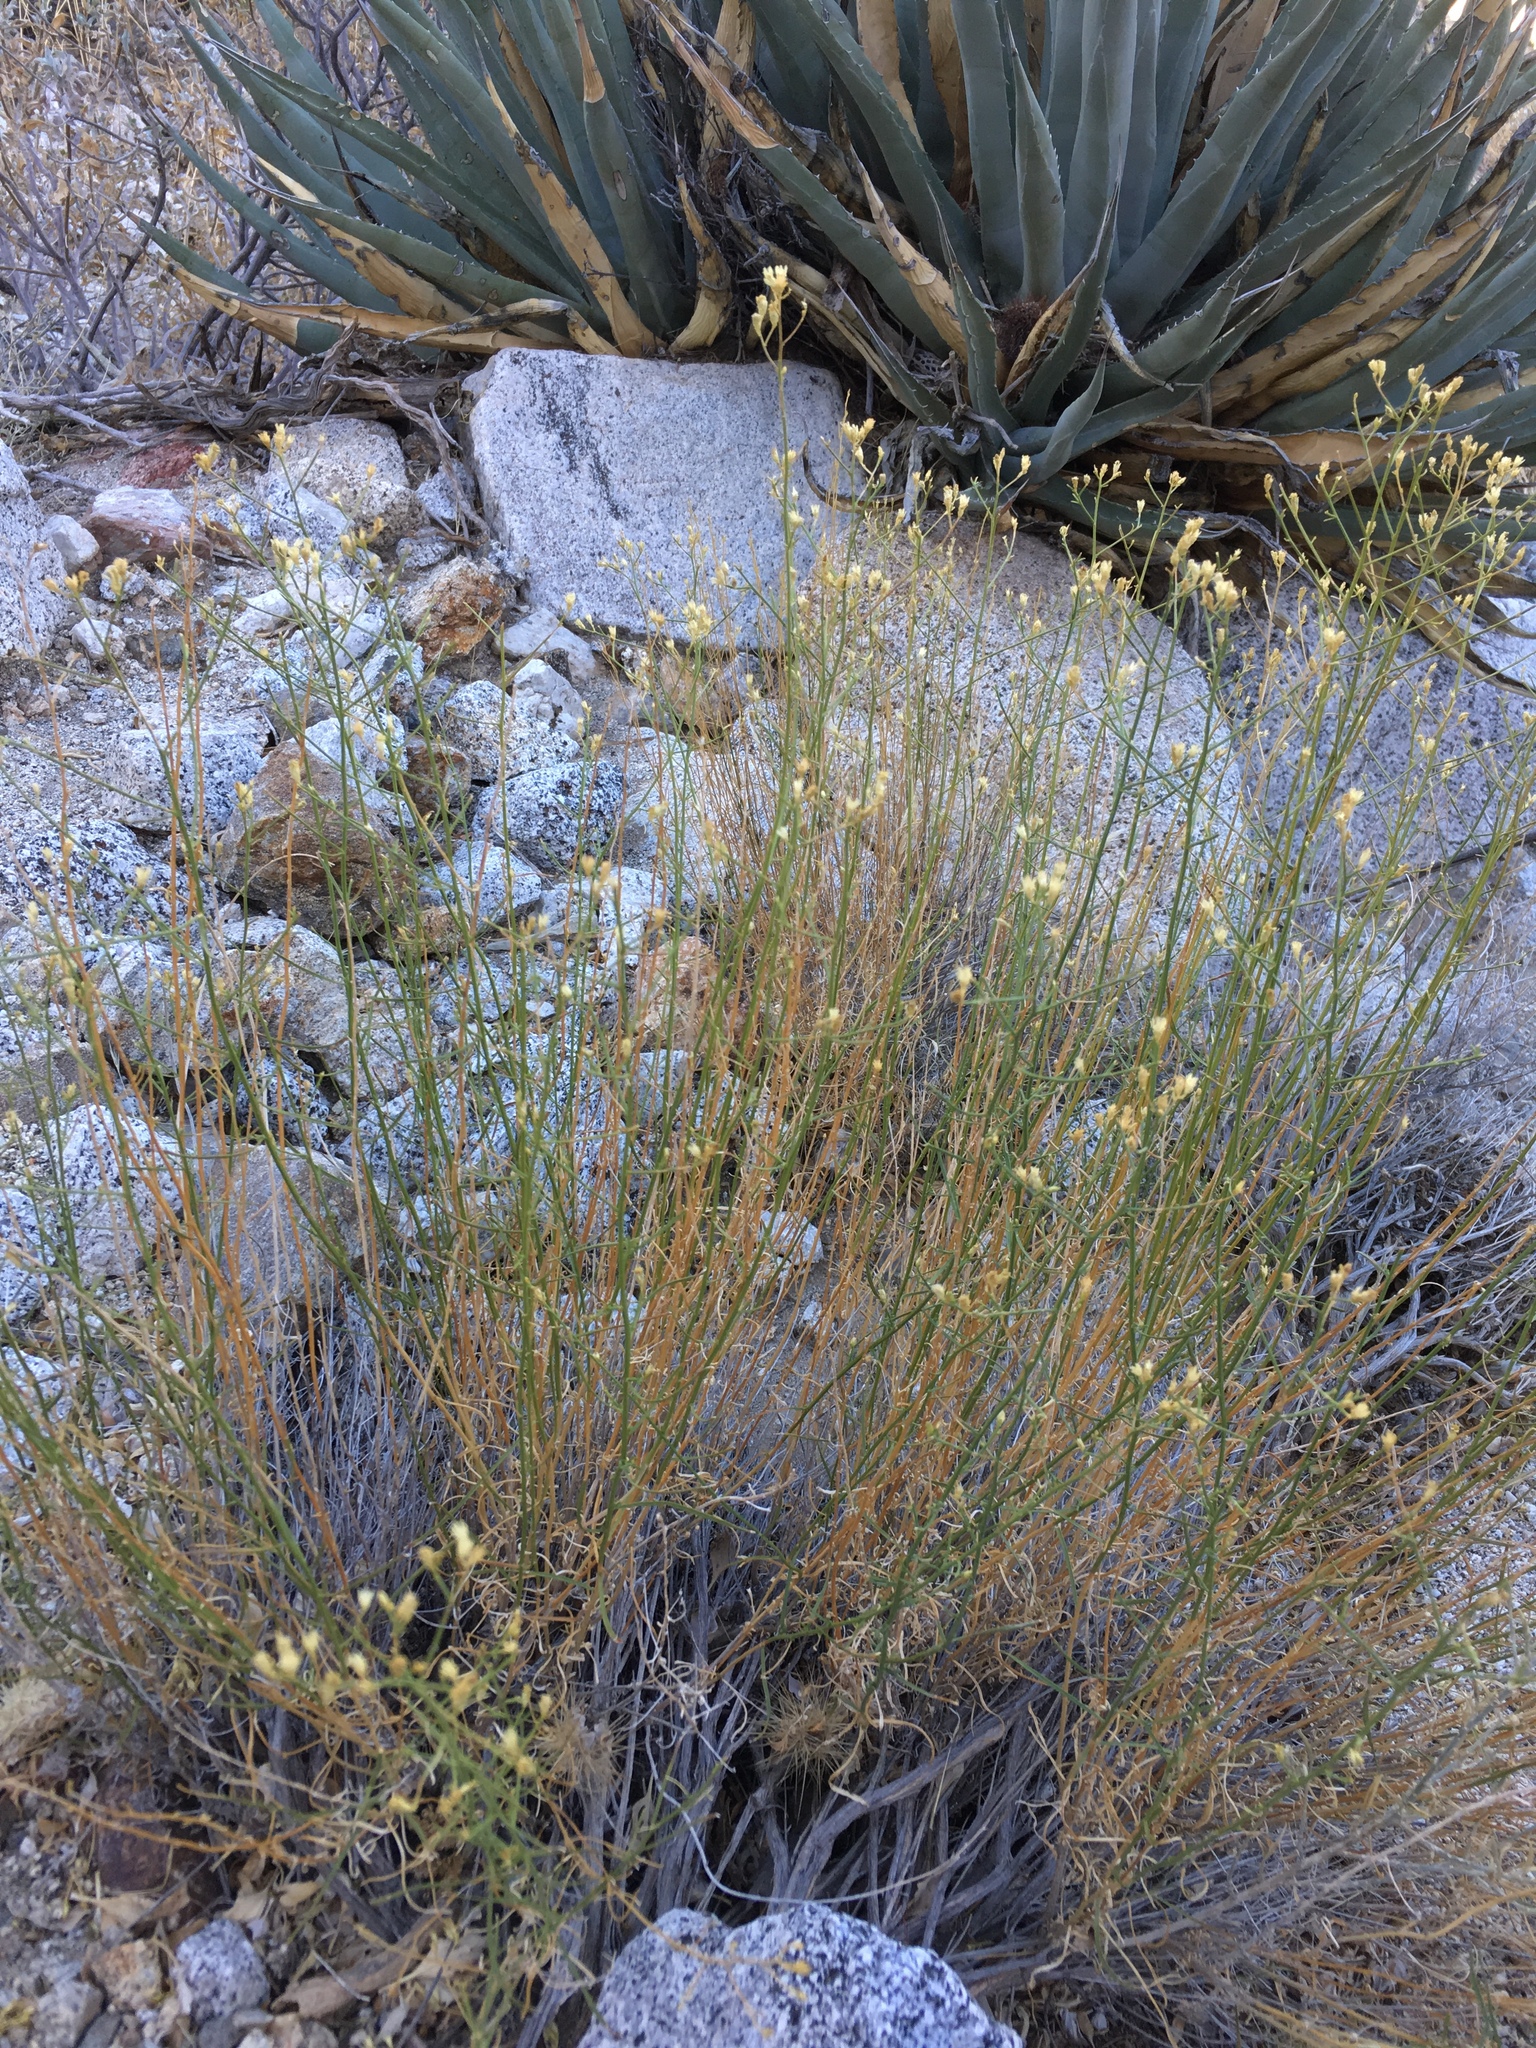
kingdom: Plantae
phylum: Tracheophyta
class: Magnoliopsida
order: Asterales
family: Asteraceae
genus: Gutierrezia
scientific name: Gutierrezia sarothrae
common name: Broom snakeweed
